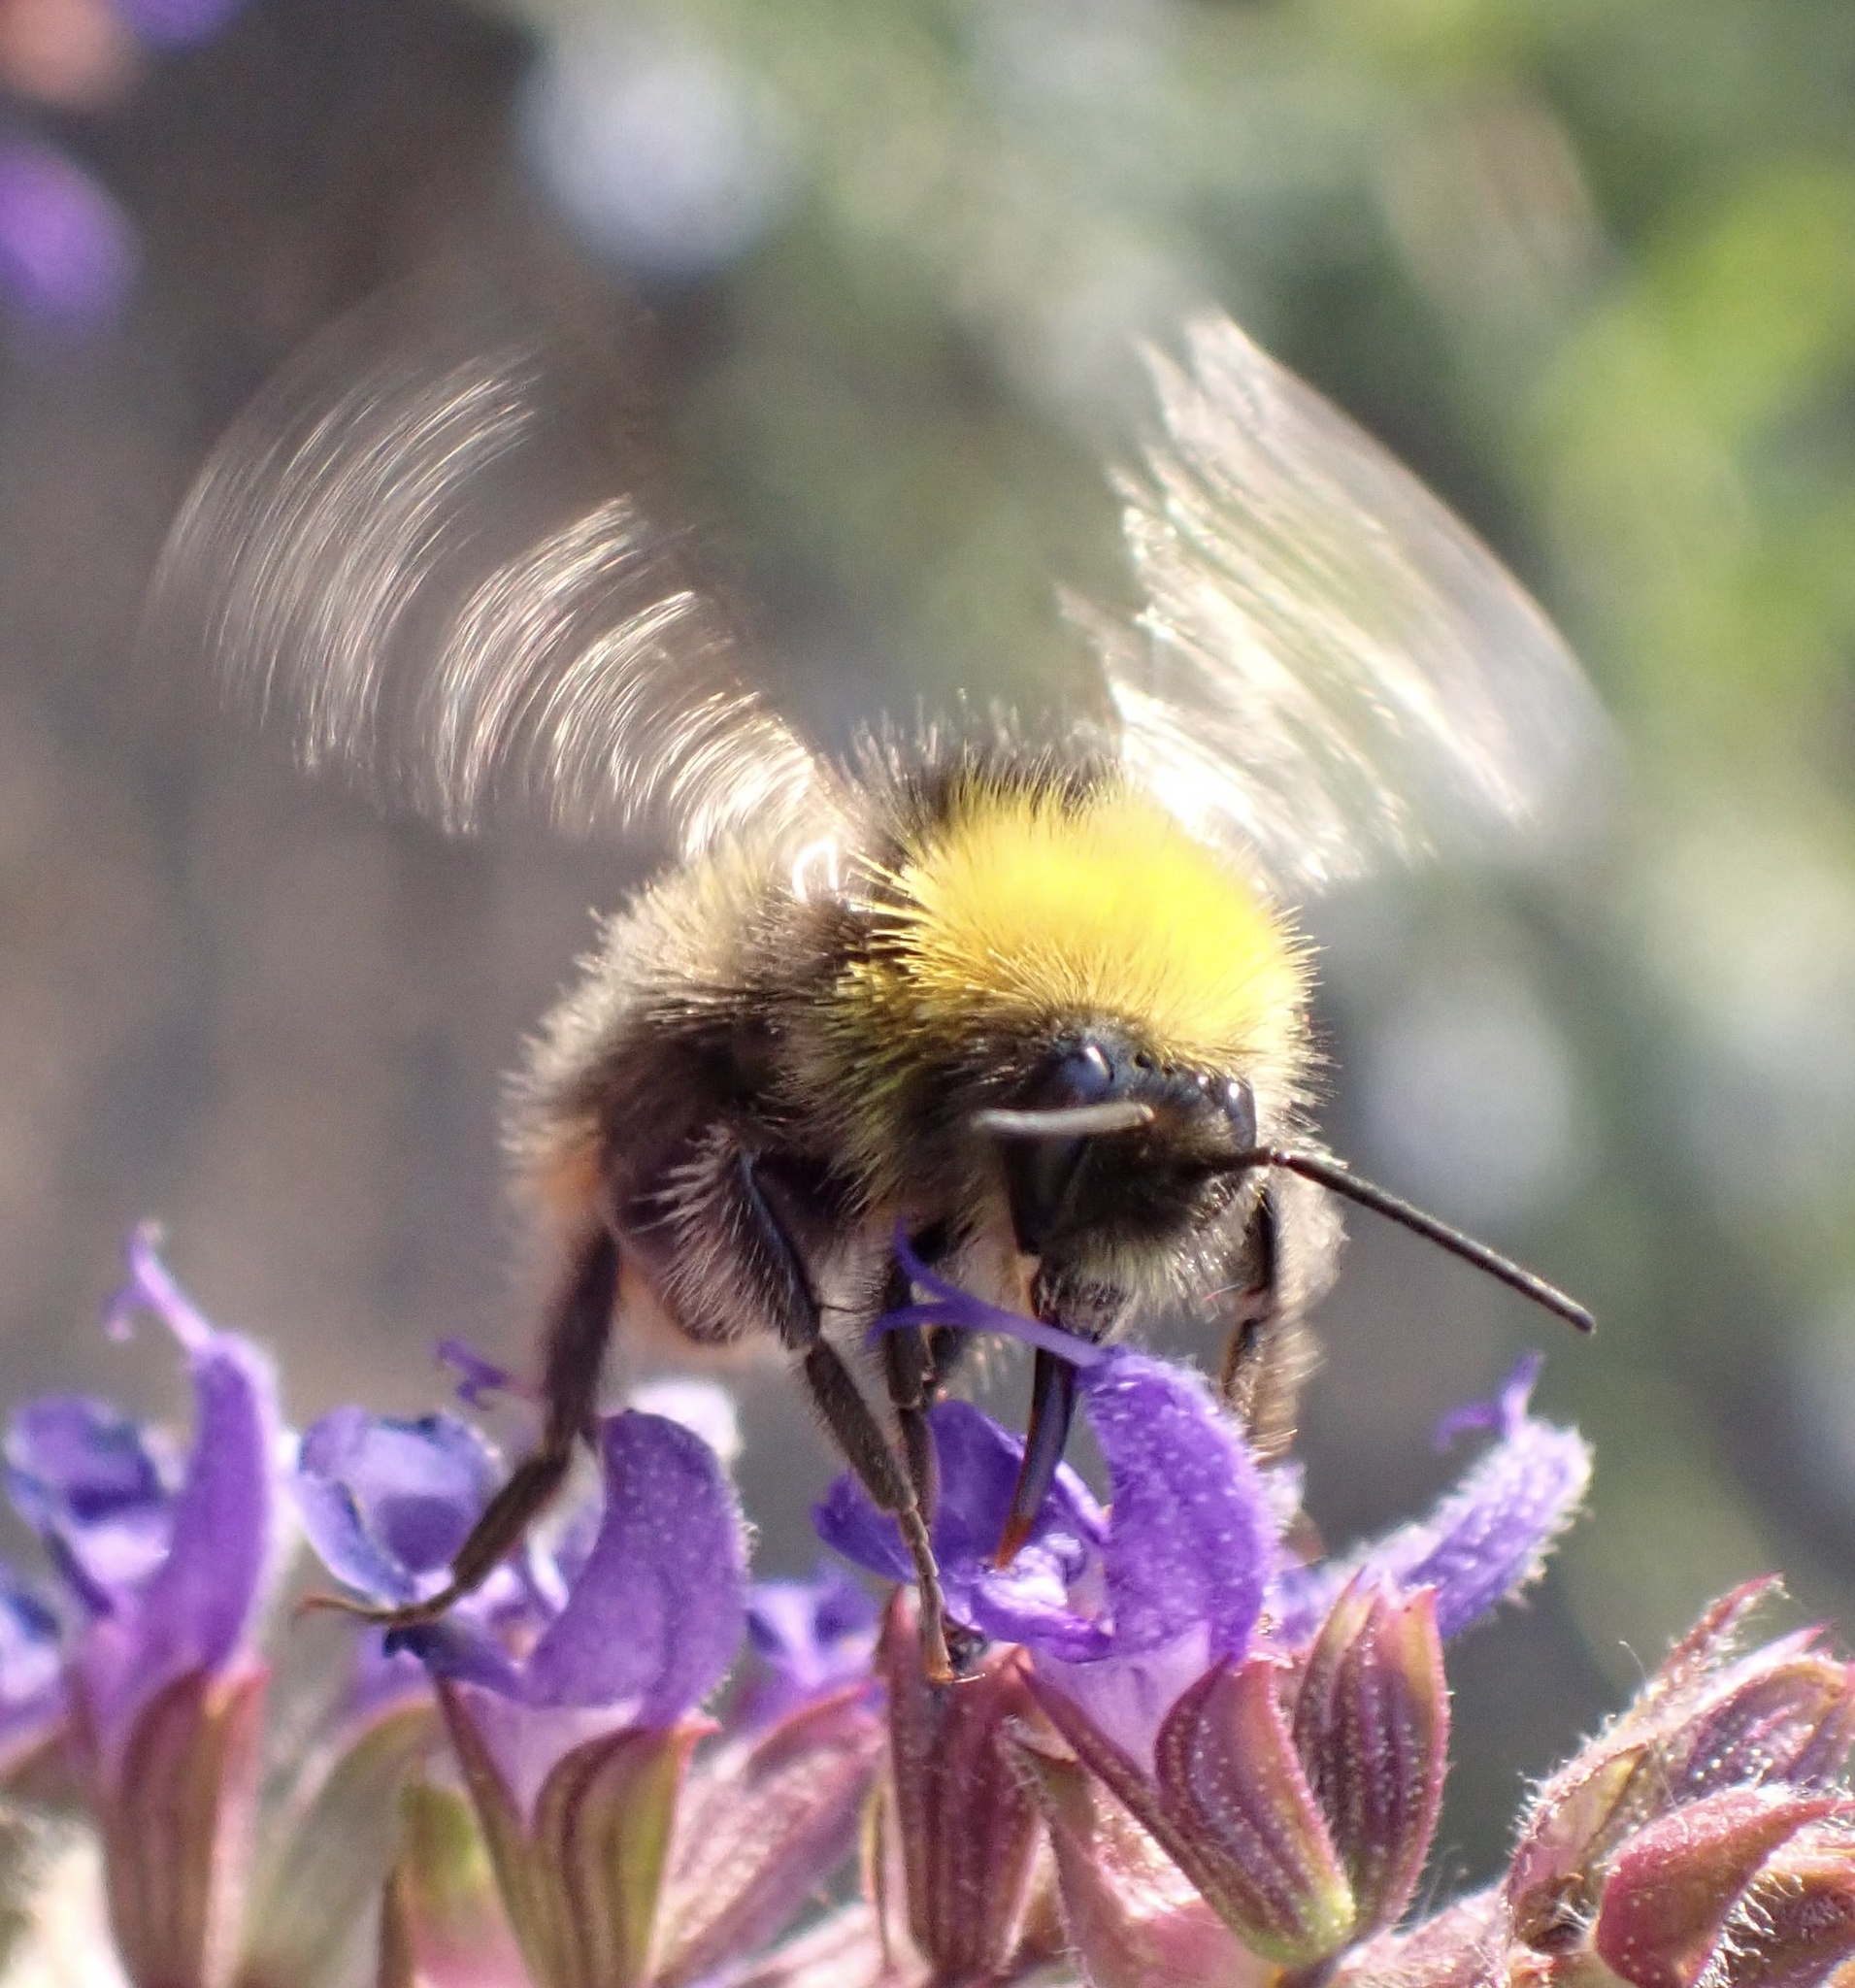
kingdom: Animalia
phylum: Arthropoda
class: Insecta
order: Hymenoptera
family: Apidae
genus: Bombus
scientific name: Bombus pratorum
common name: Early humble-bee
